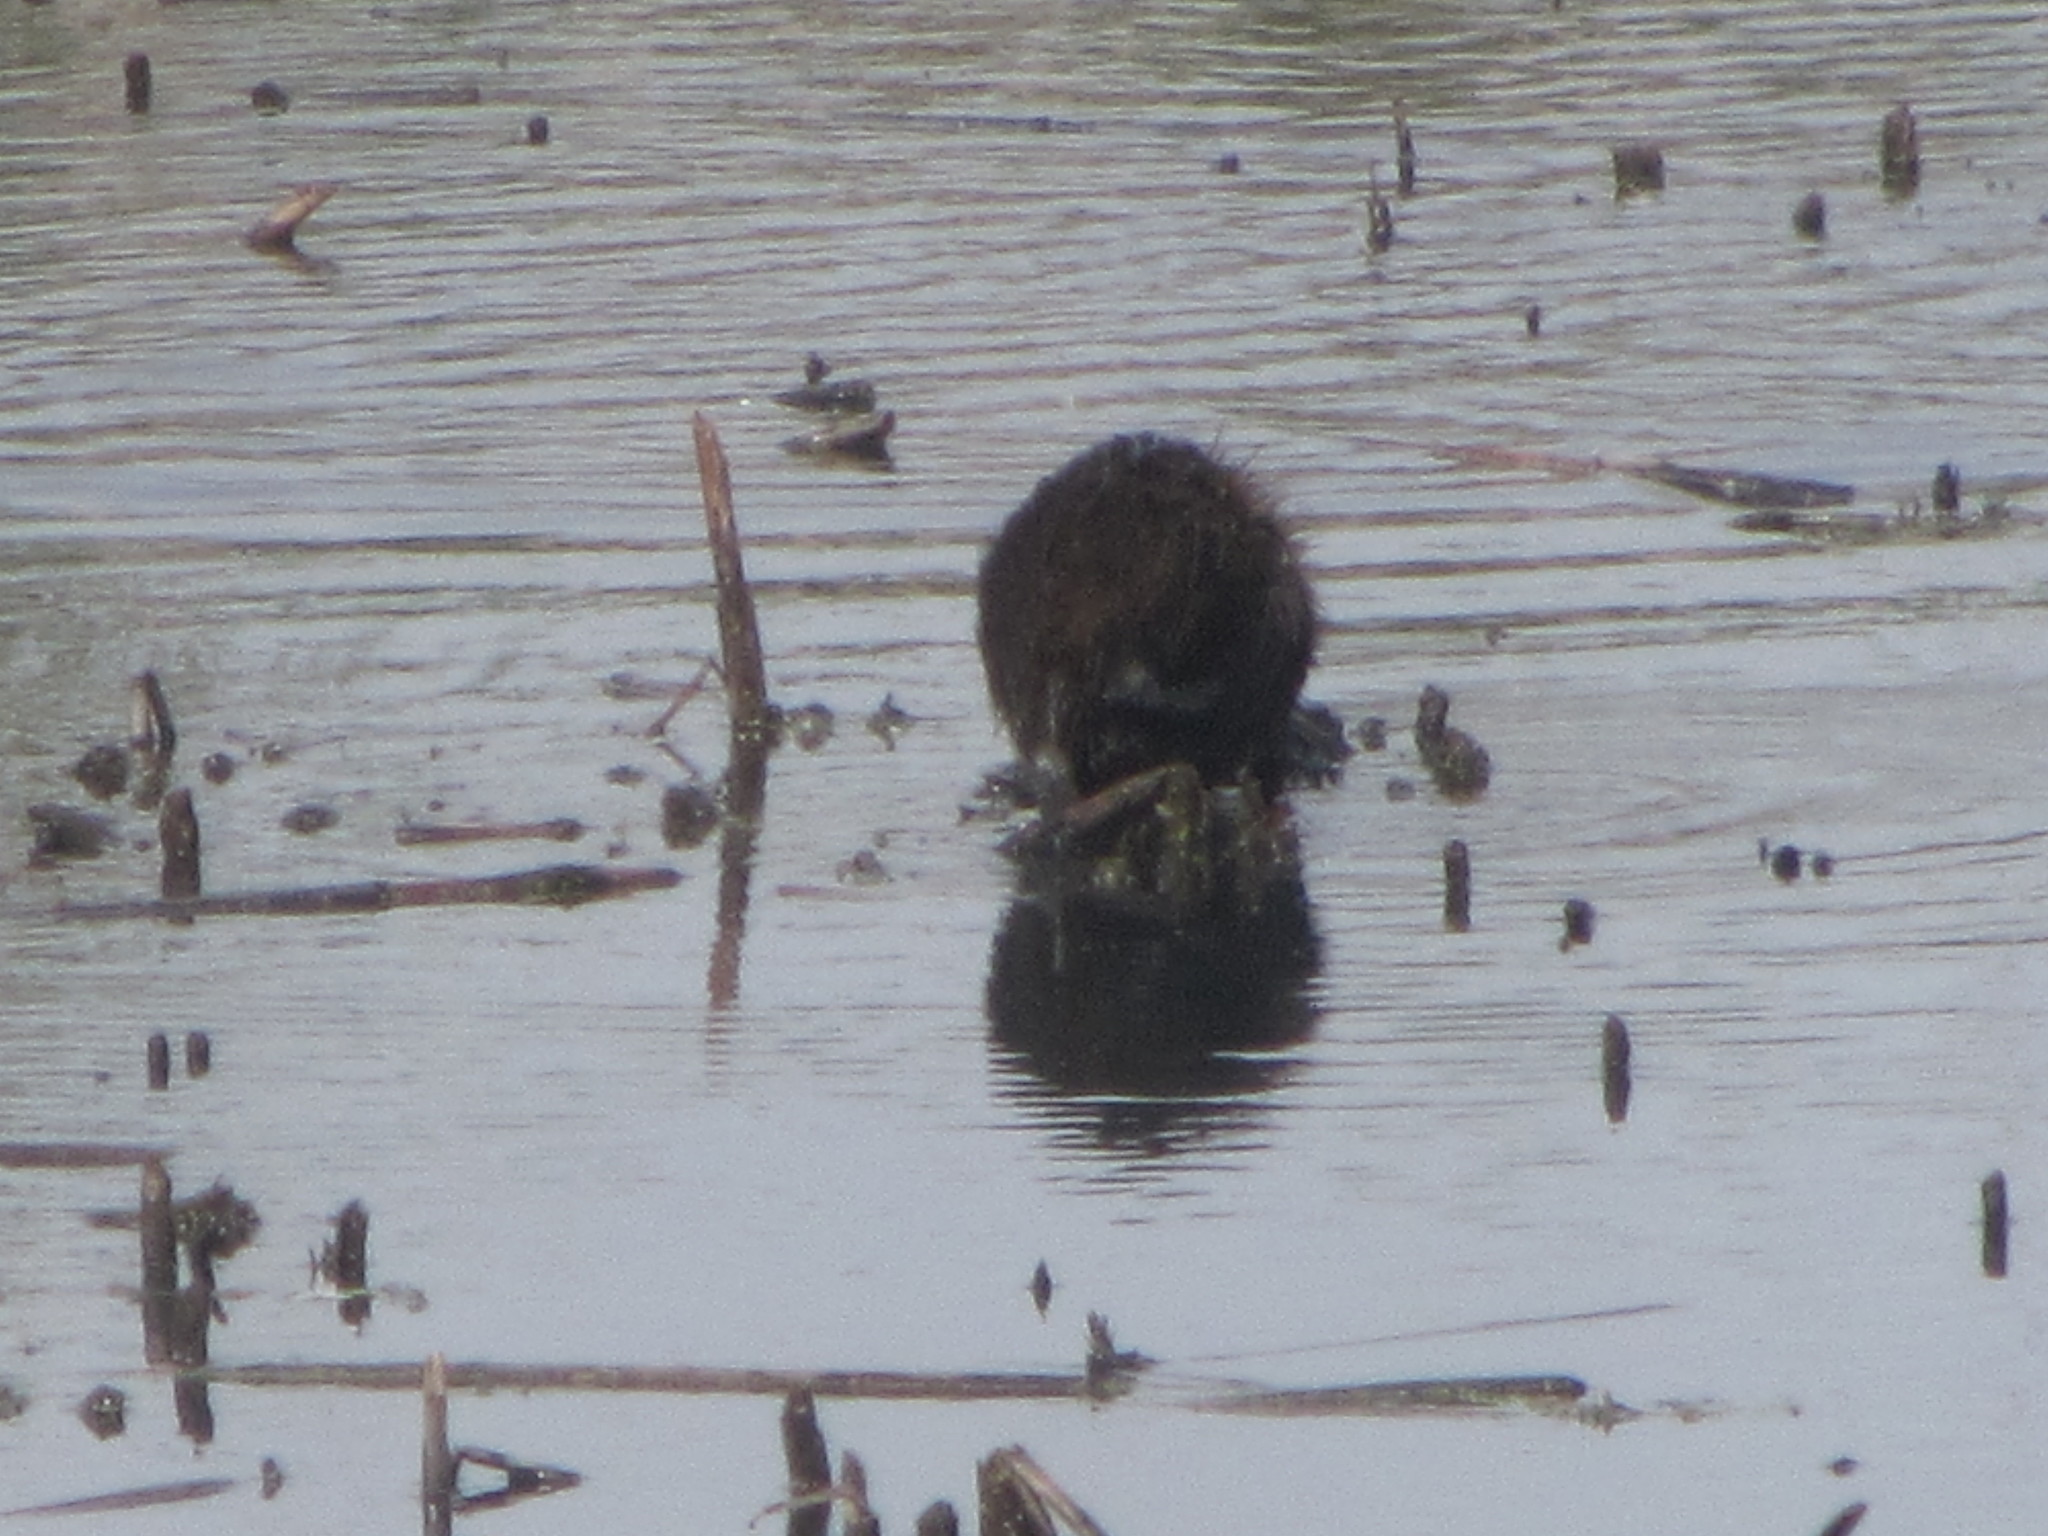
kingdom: Animalia
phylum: Chordata
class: Mammalia
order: Rodentia
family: Myocastoridae
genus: Myocastor
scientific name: Myocastor coypus
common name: Coypu
